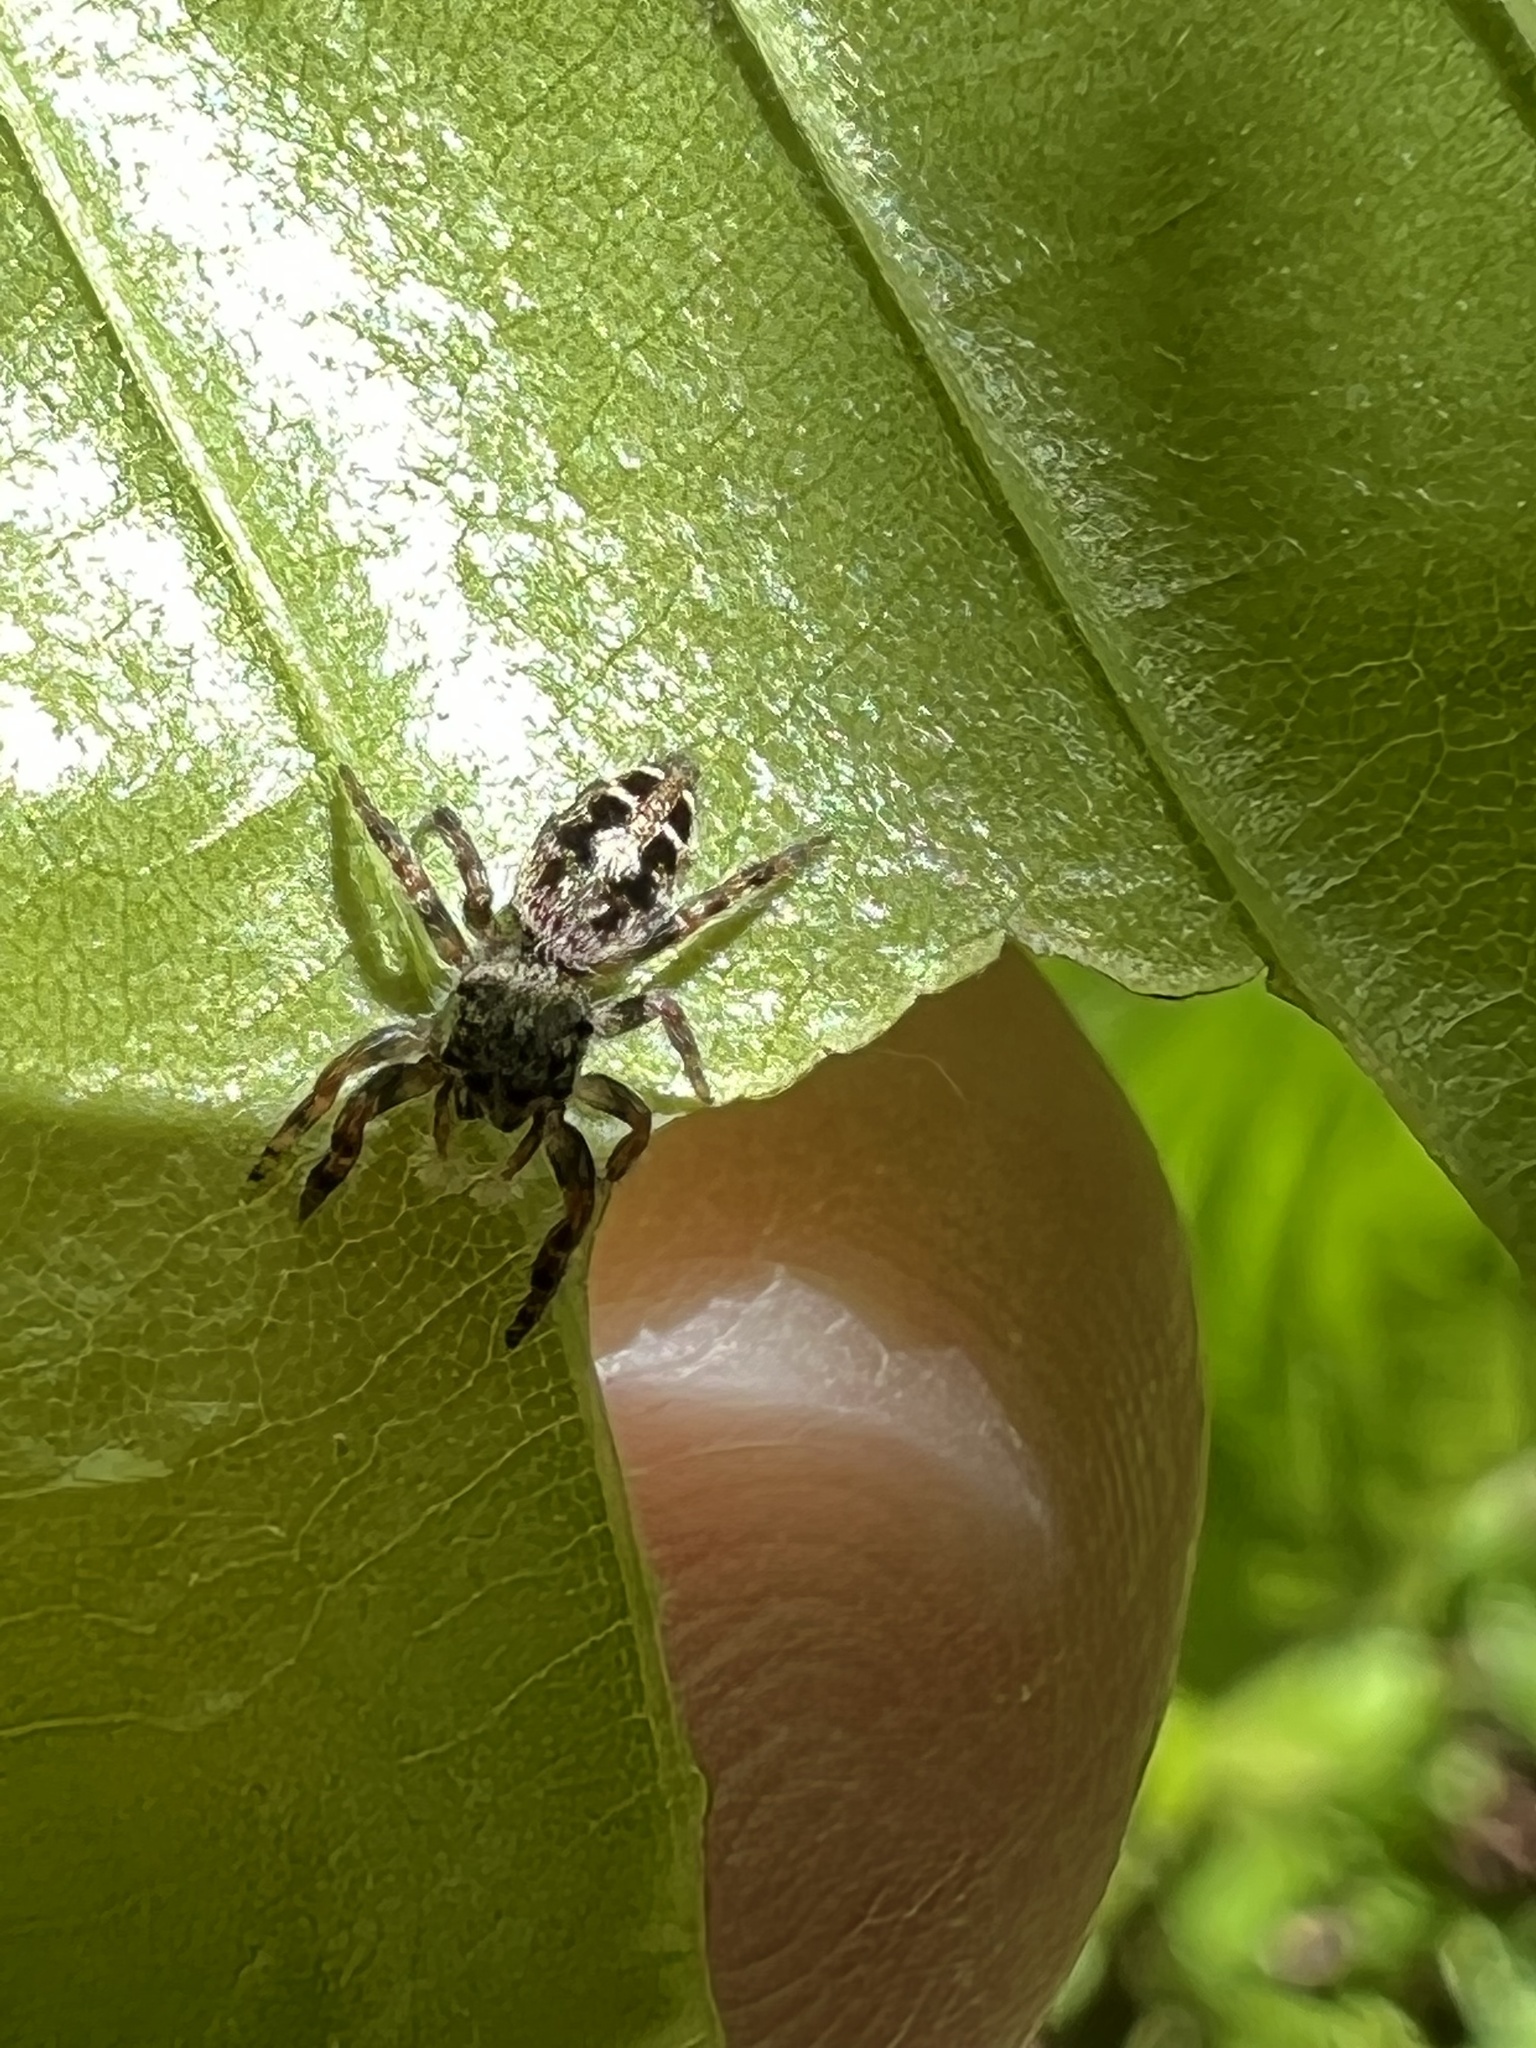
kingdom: Animalia
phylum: Arthropoda
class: Arachnida
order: Araneae
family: Salticidae
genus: Phidippus
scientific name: Phidippus putnami
